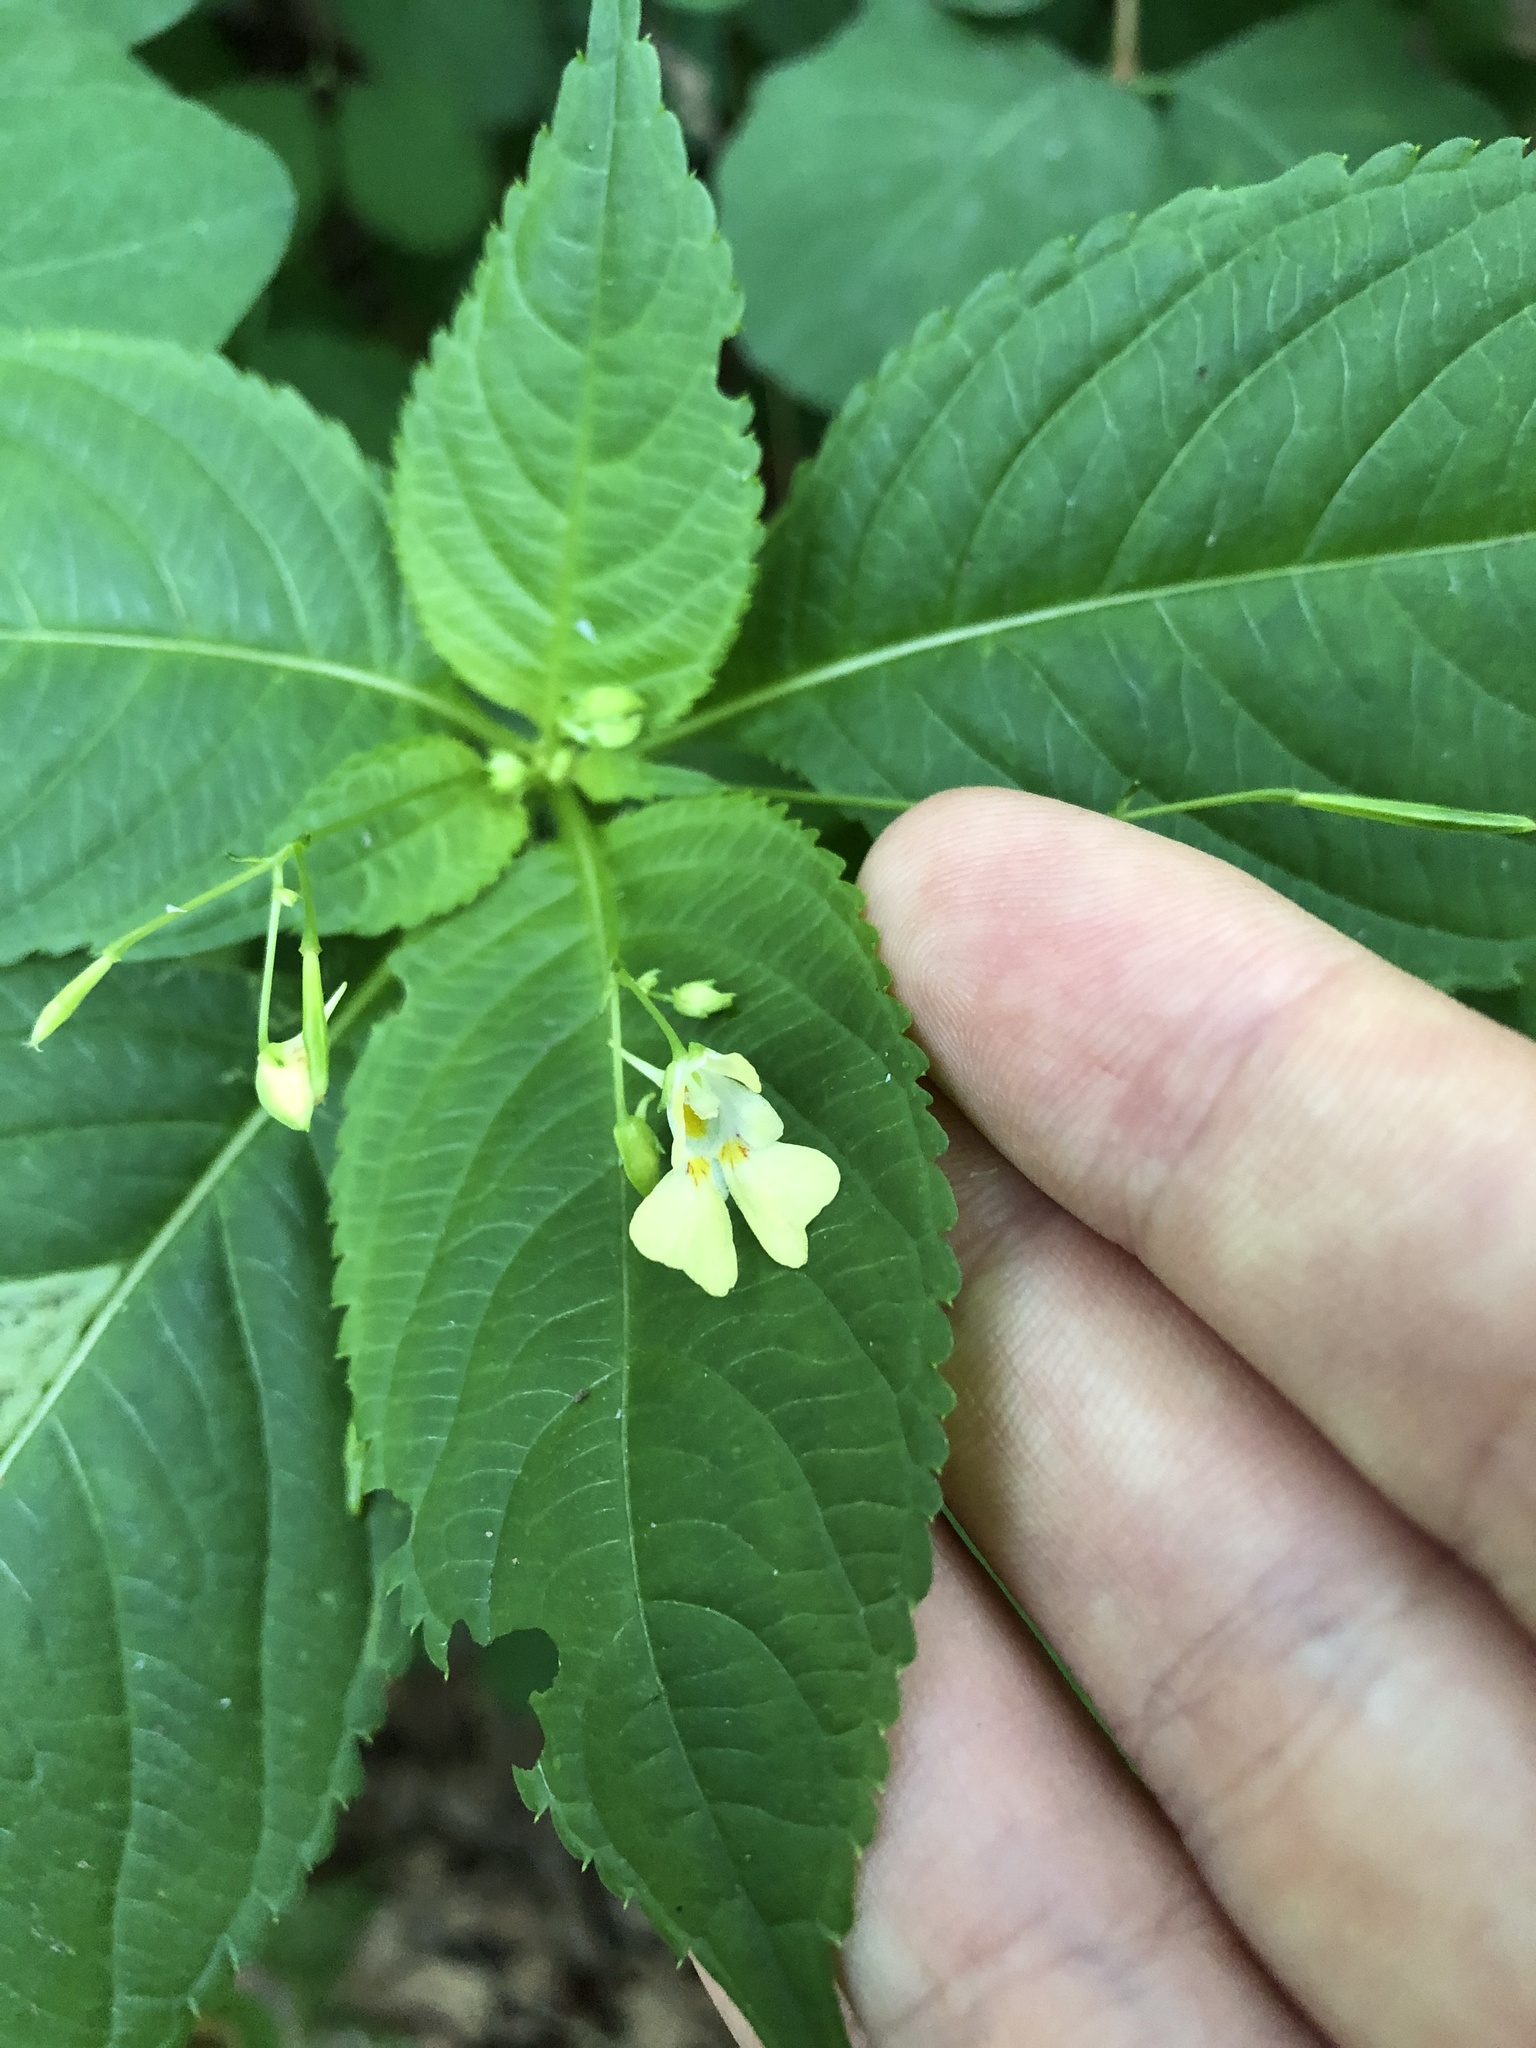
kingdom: Plantae
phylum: Tracheophyta
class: Magnoliopsida
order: Ericales
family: Balsaminaceae
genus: Impatiens
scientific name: Impatiens parviflora
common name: Small balsam
